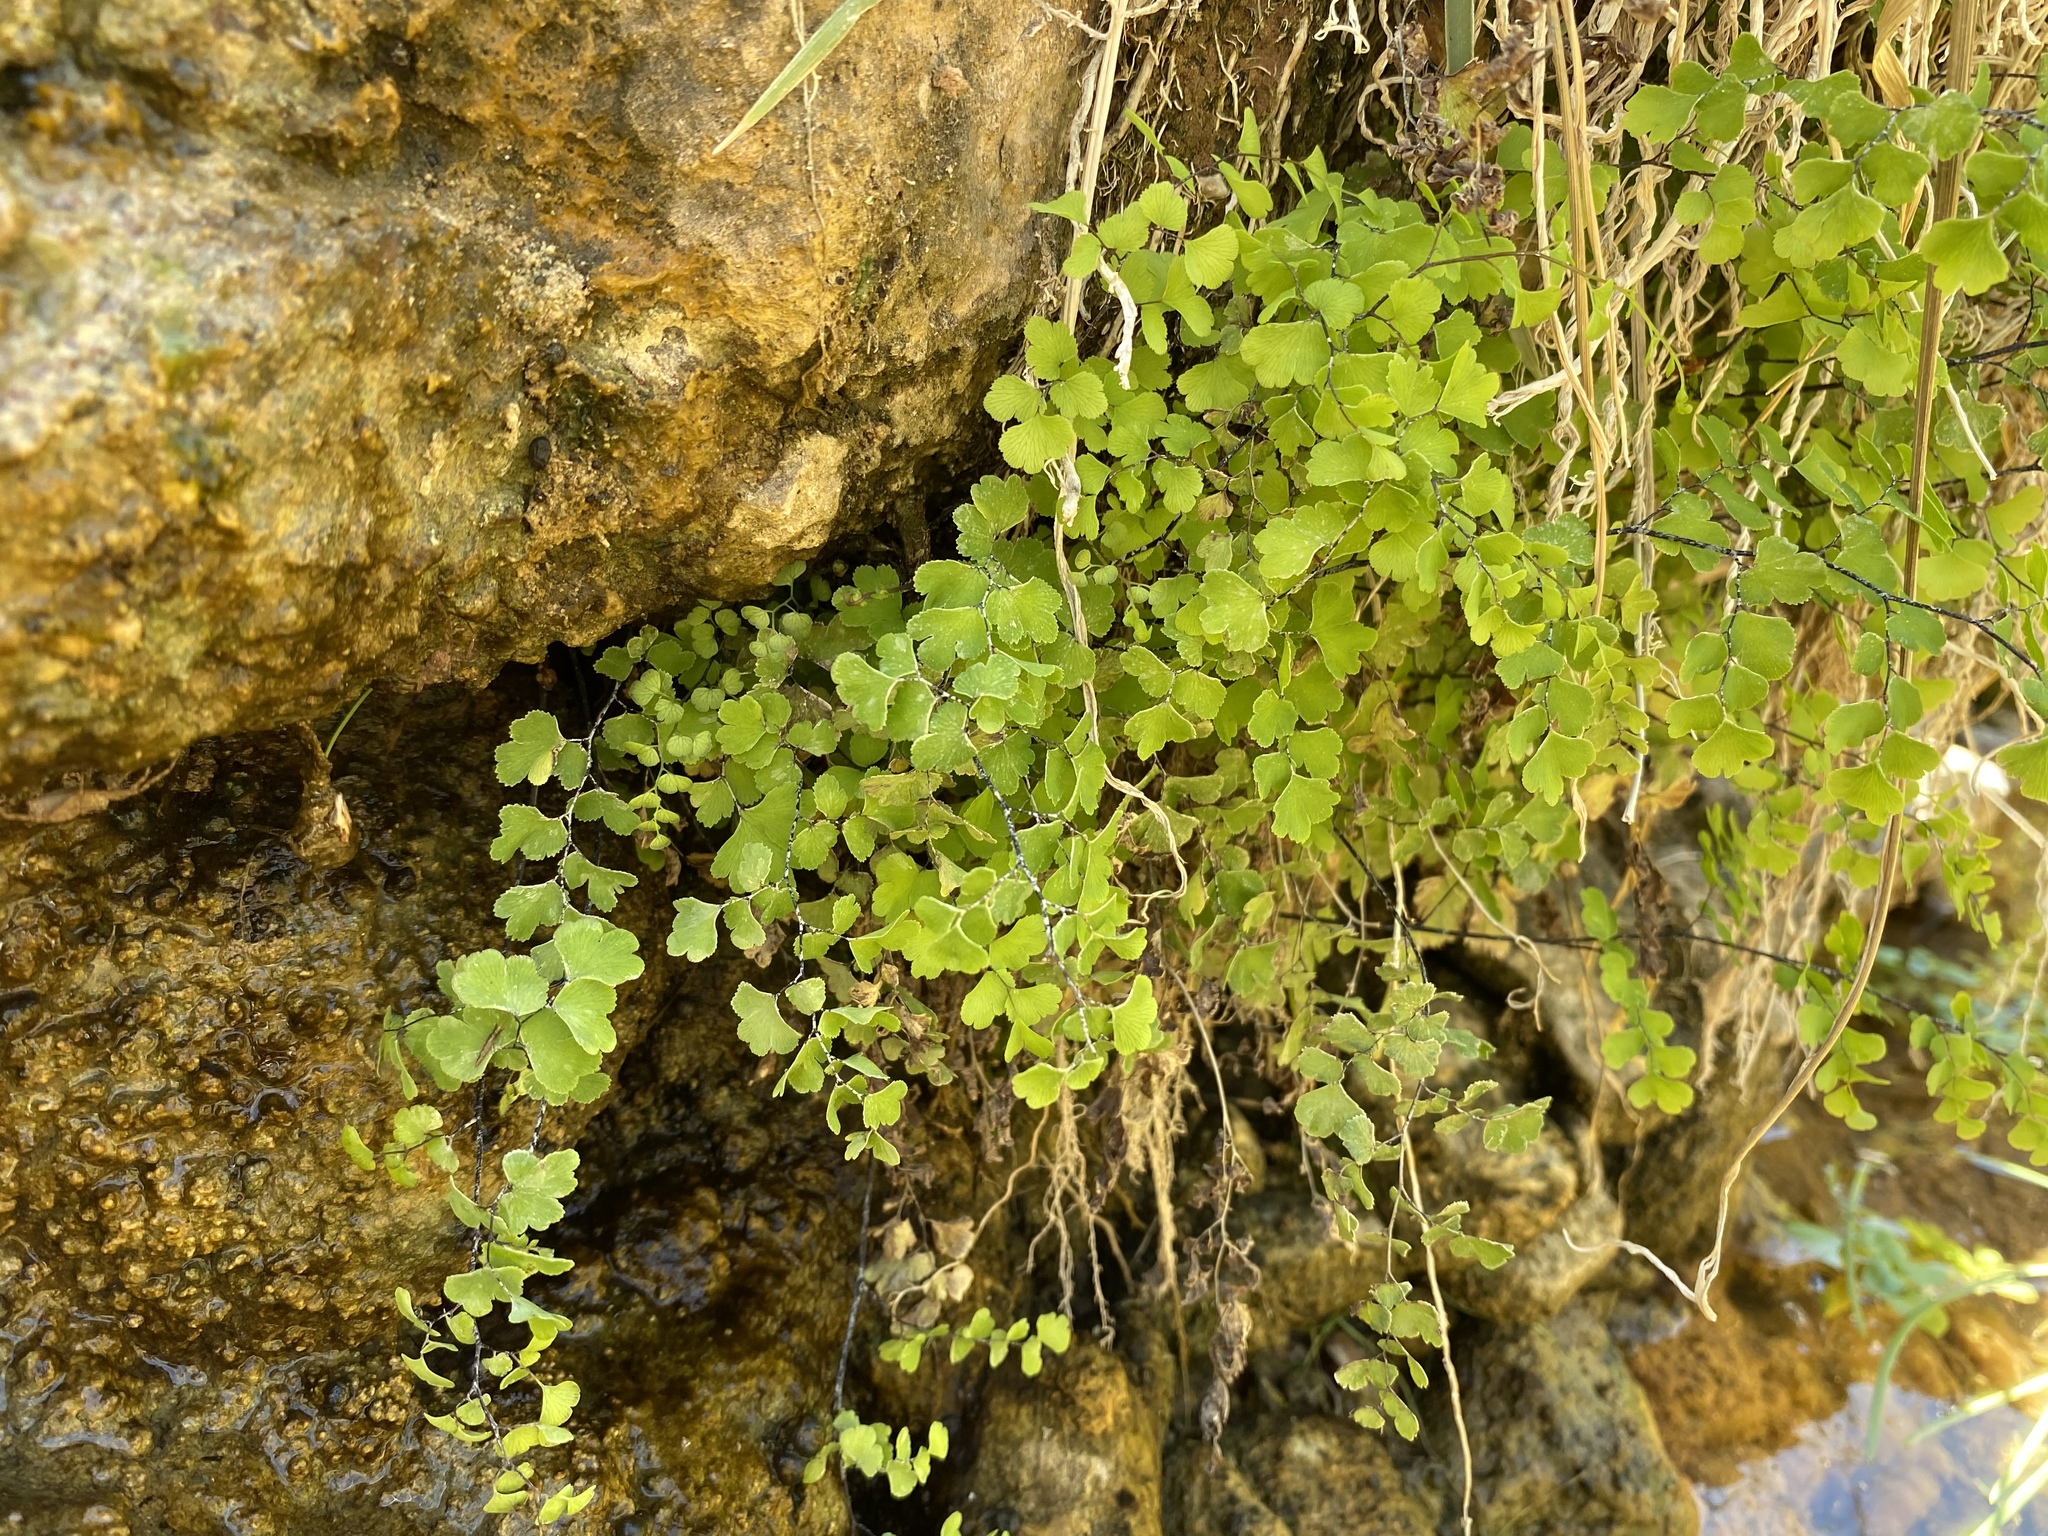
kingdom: Plantae
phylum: Tracheophyta
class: Polypodiopsida
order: Polypodiales
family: Pteridaceae
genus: Adiantum
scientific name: Adiantum capillus-veneris
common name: Maidenhair fern
